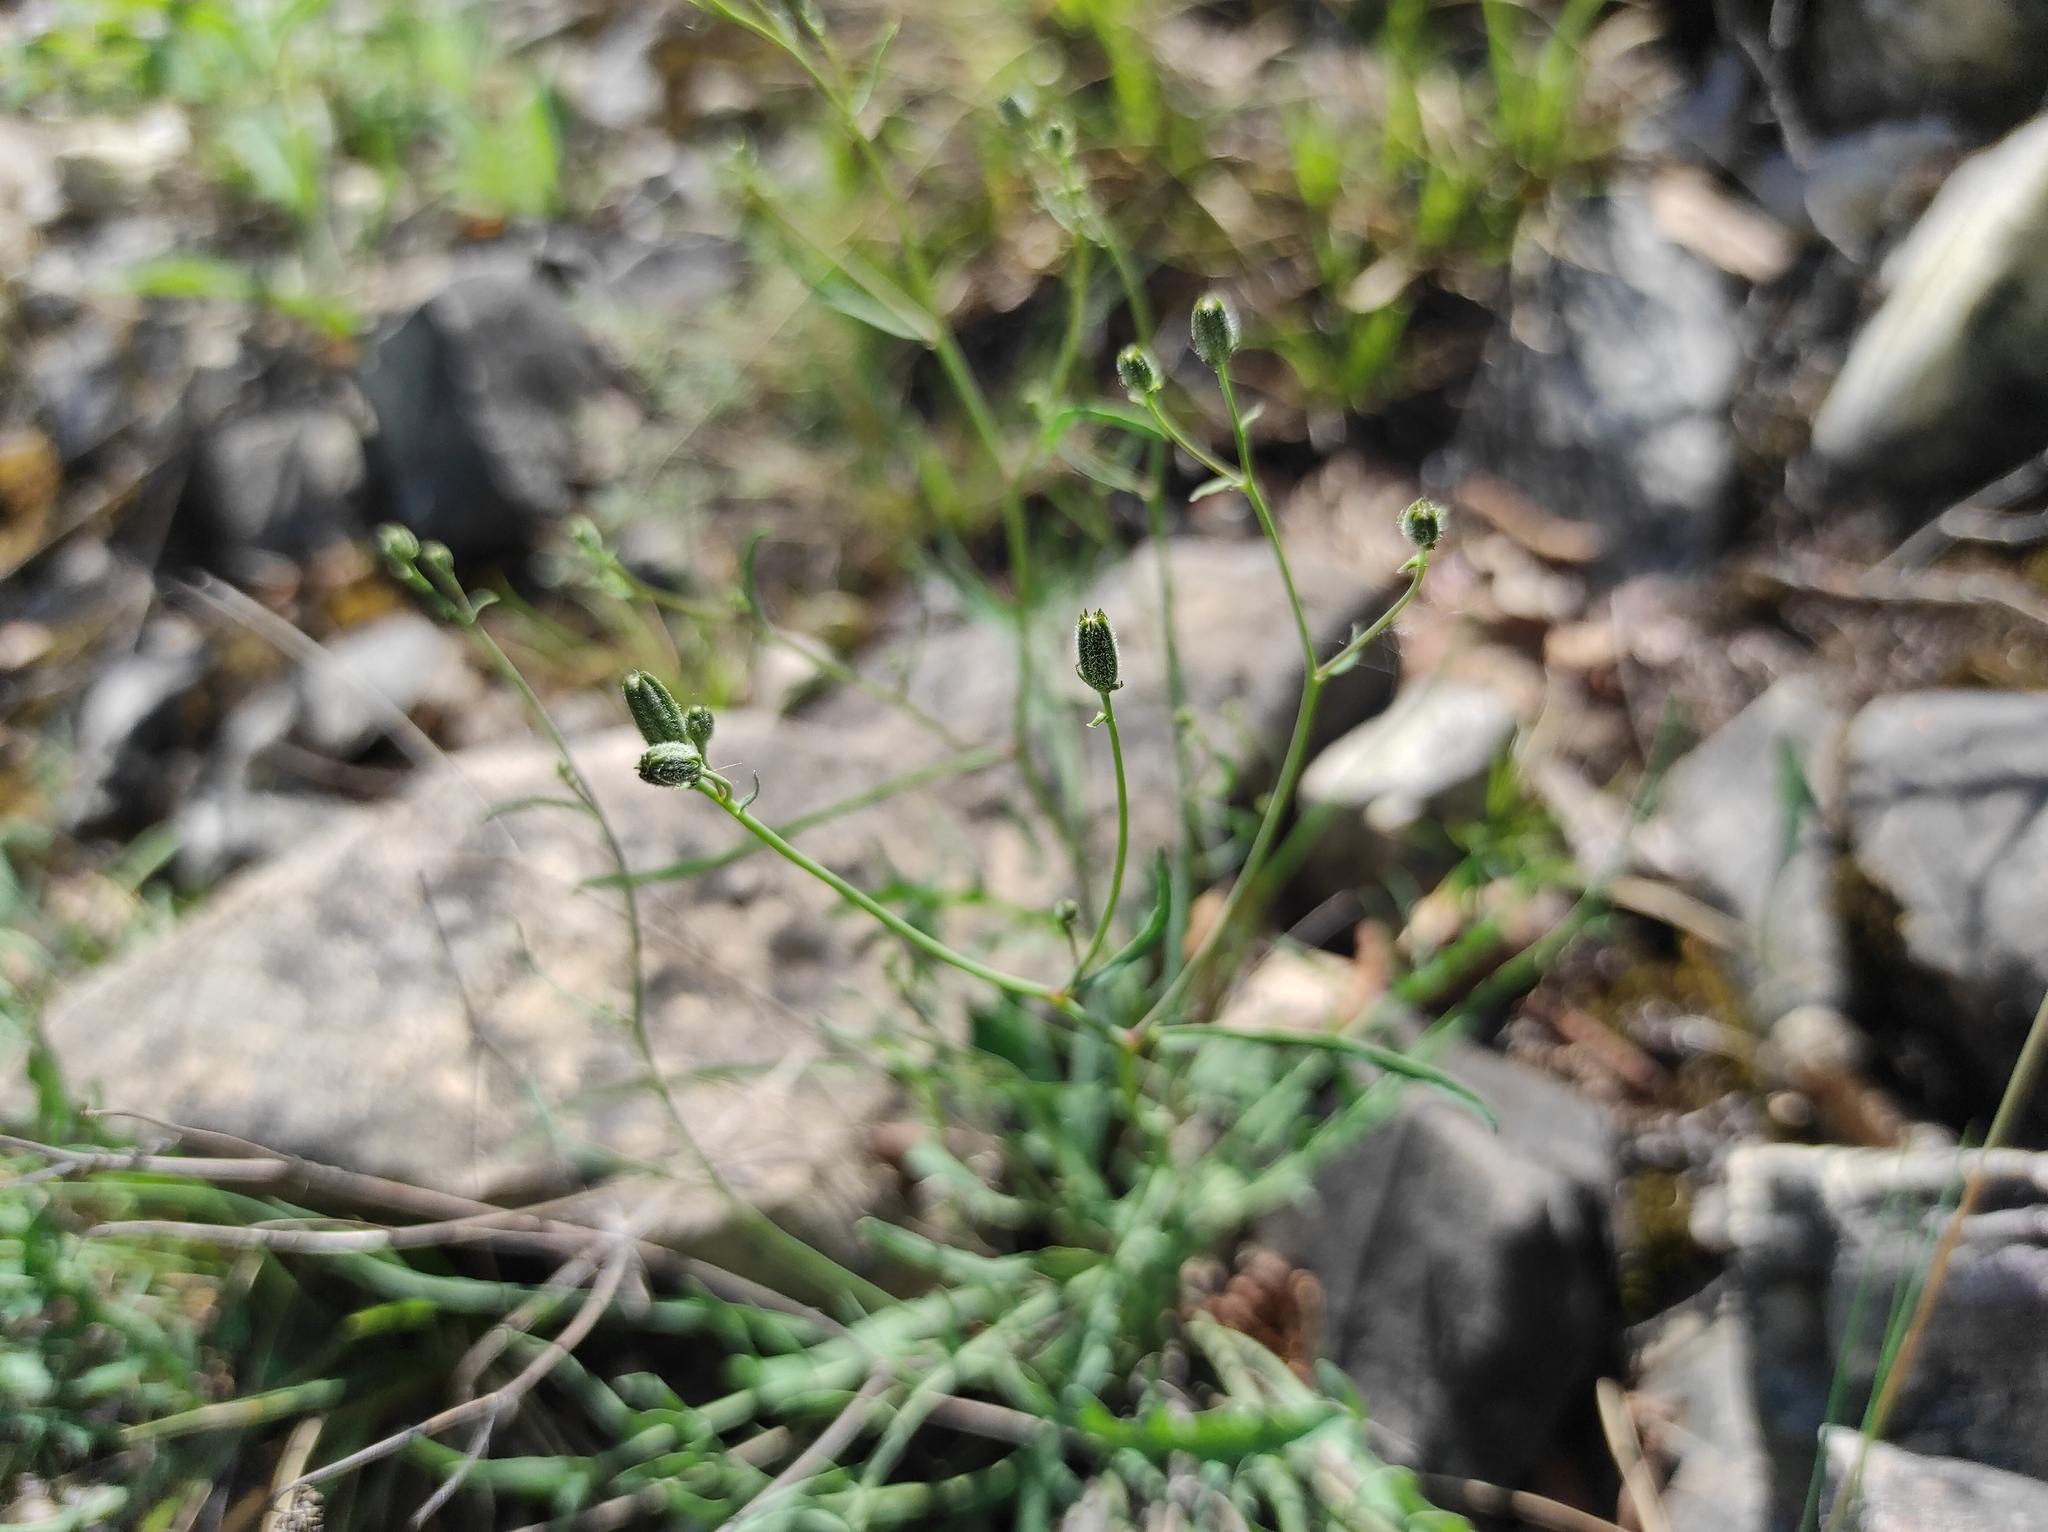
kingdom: Plantae
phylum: Tracheophyta
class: Magnoliopsida
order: Asterales
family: Asteraceae
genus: Crepidiastrum
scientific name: Crepidiastrum tenuifolium
